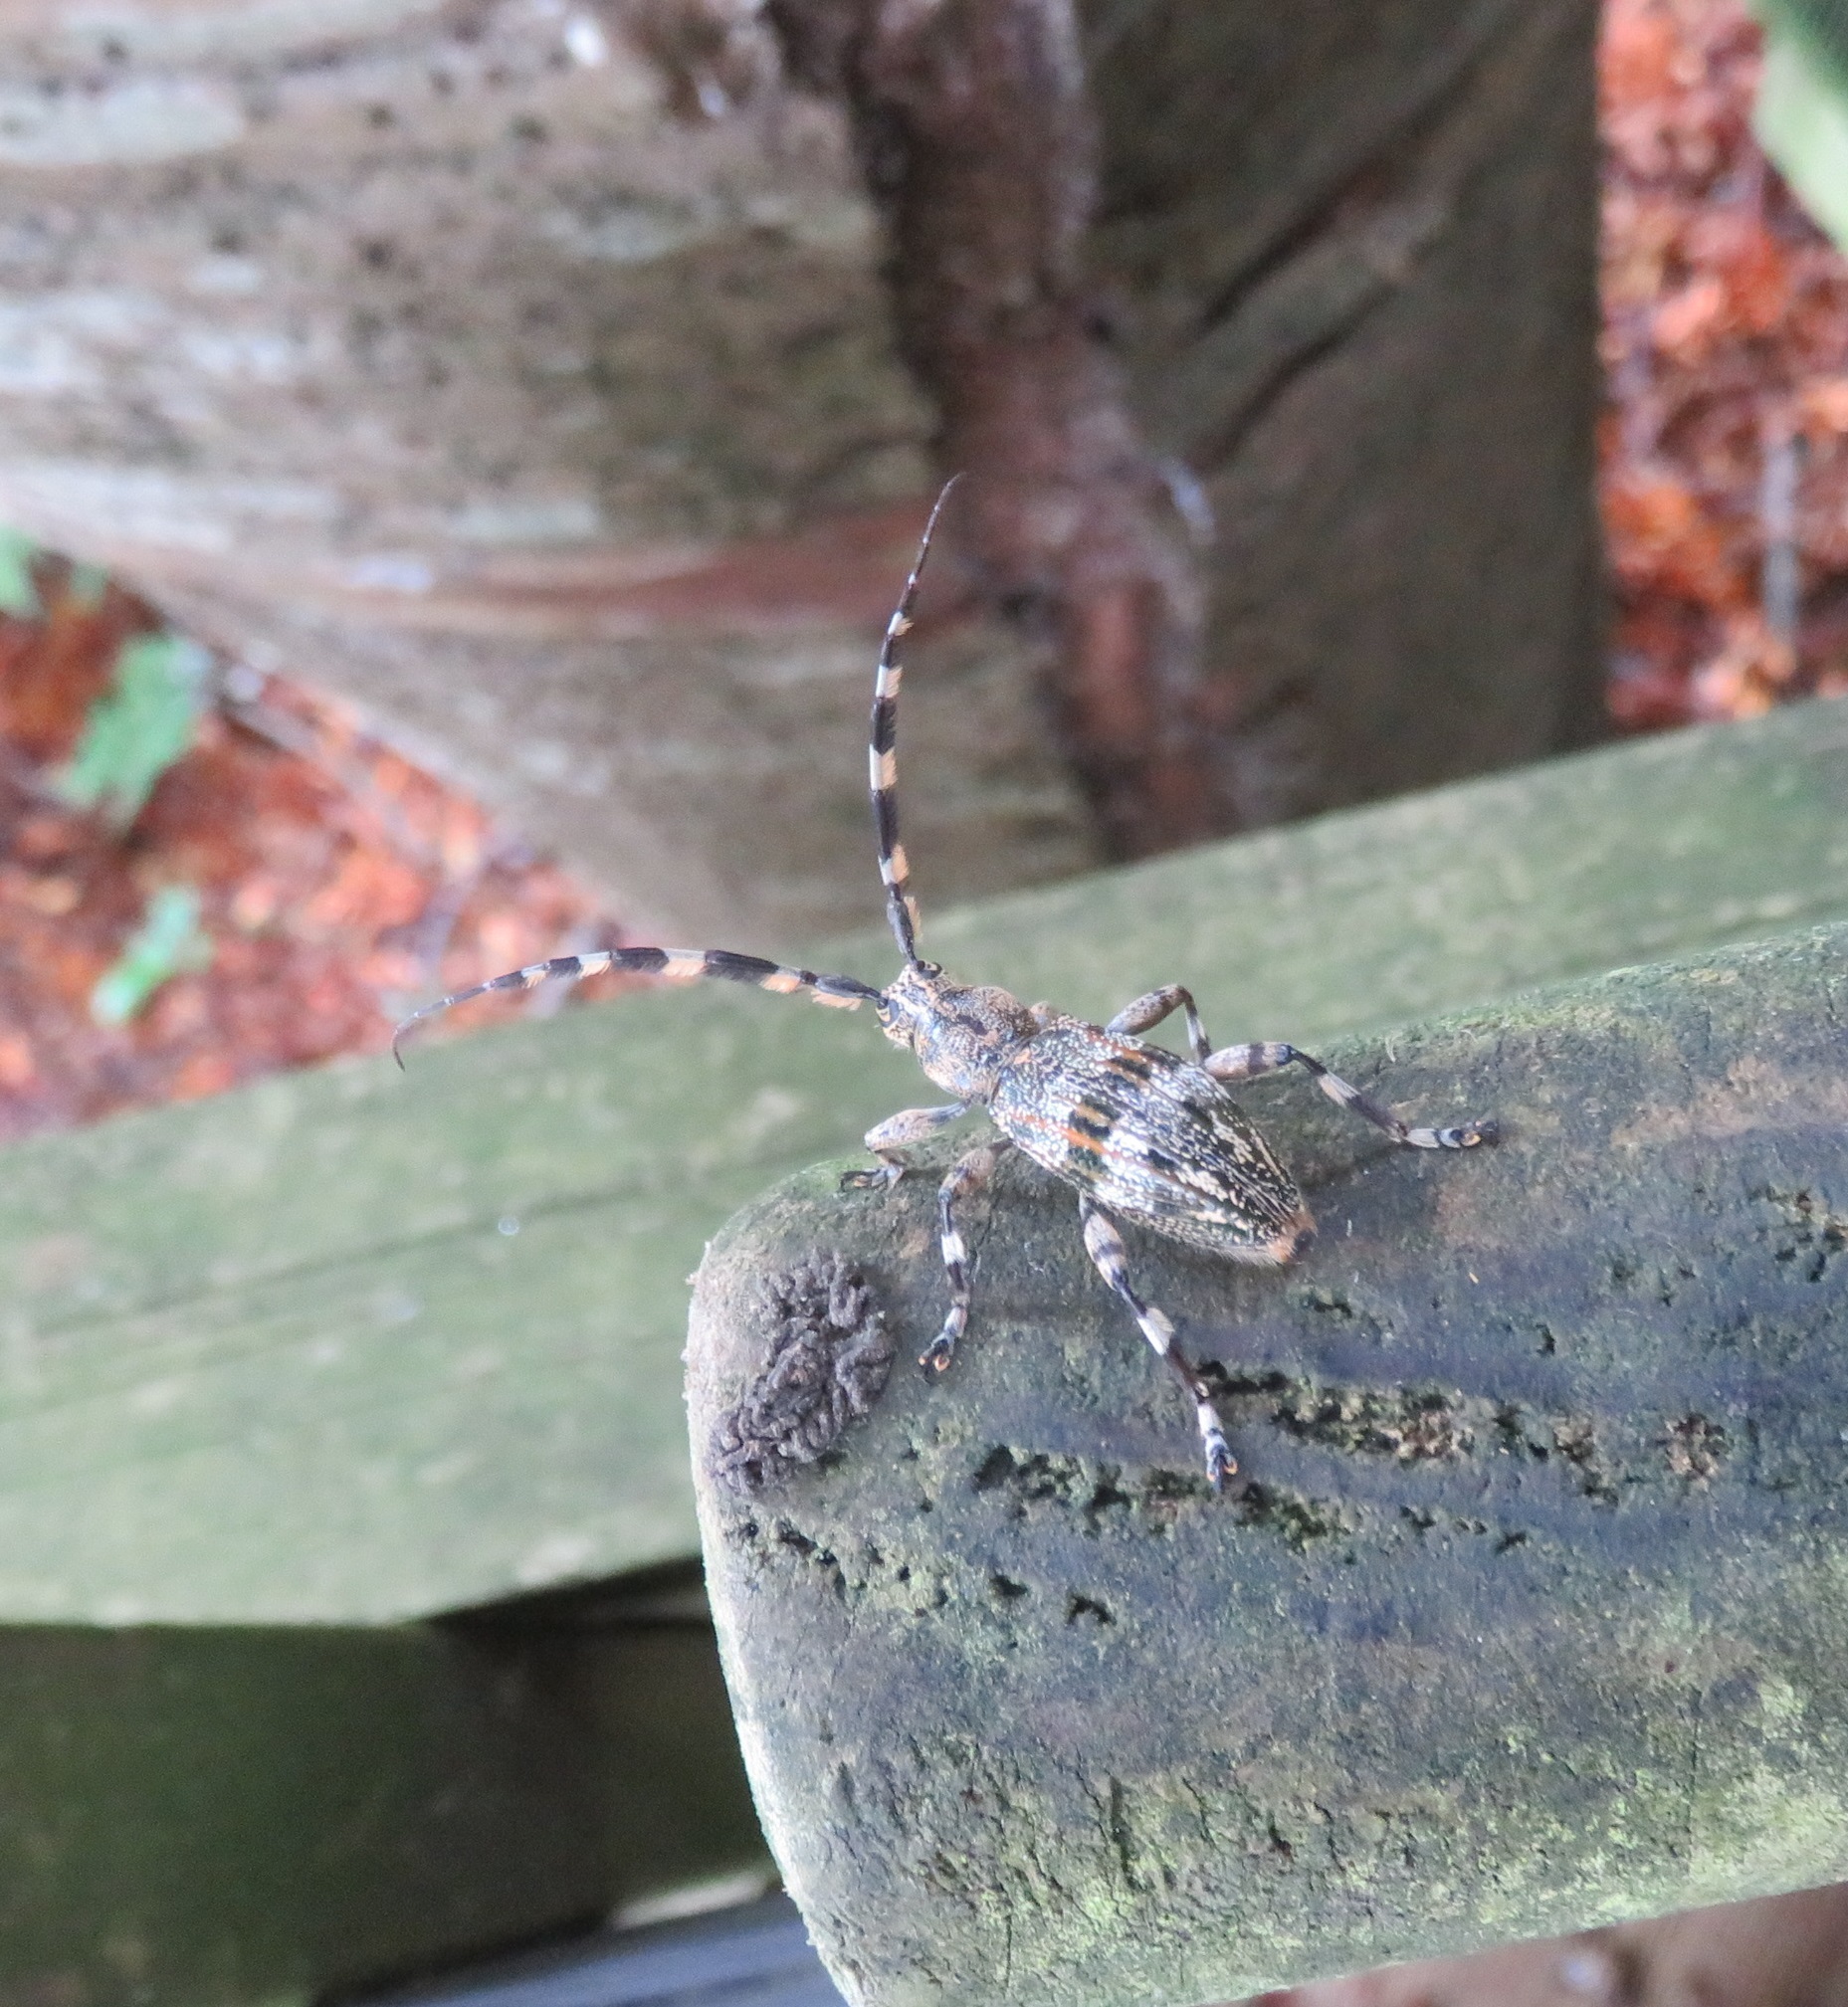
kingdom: Animalia
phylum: Arthropoda
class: Insecta
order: Coleoptera
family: Cerambycidae
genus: Hexatricha
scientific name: Hexatricha pulverulenta
